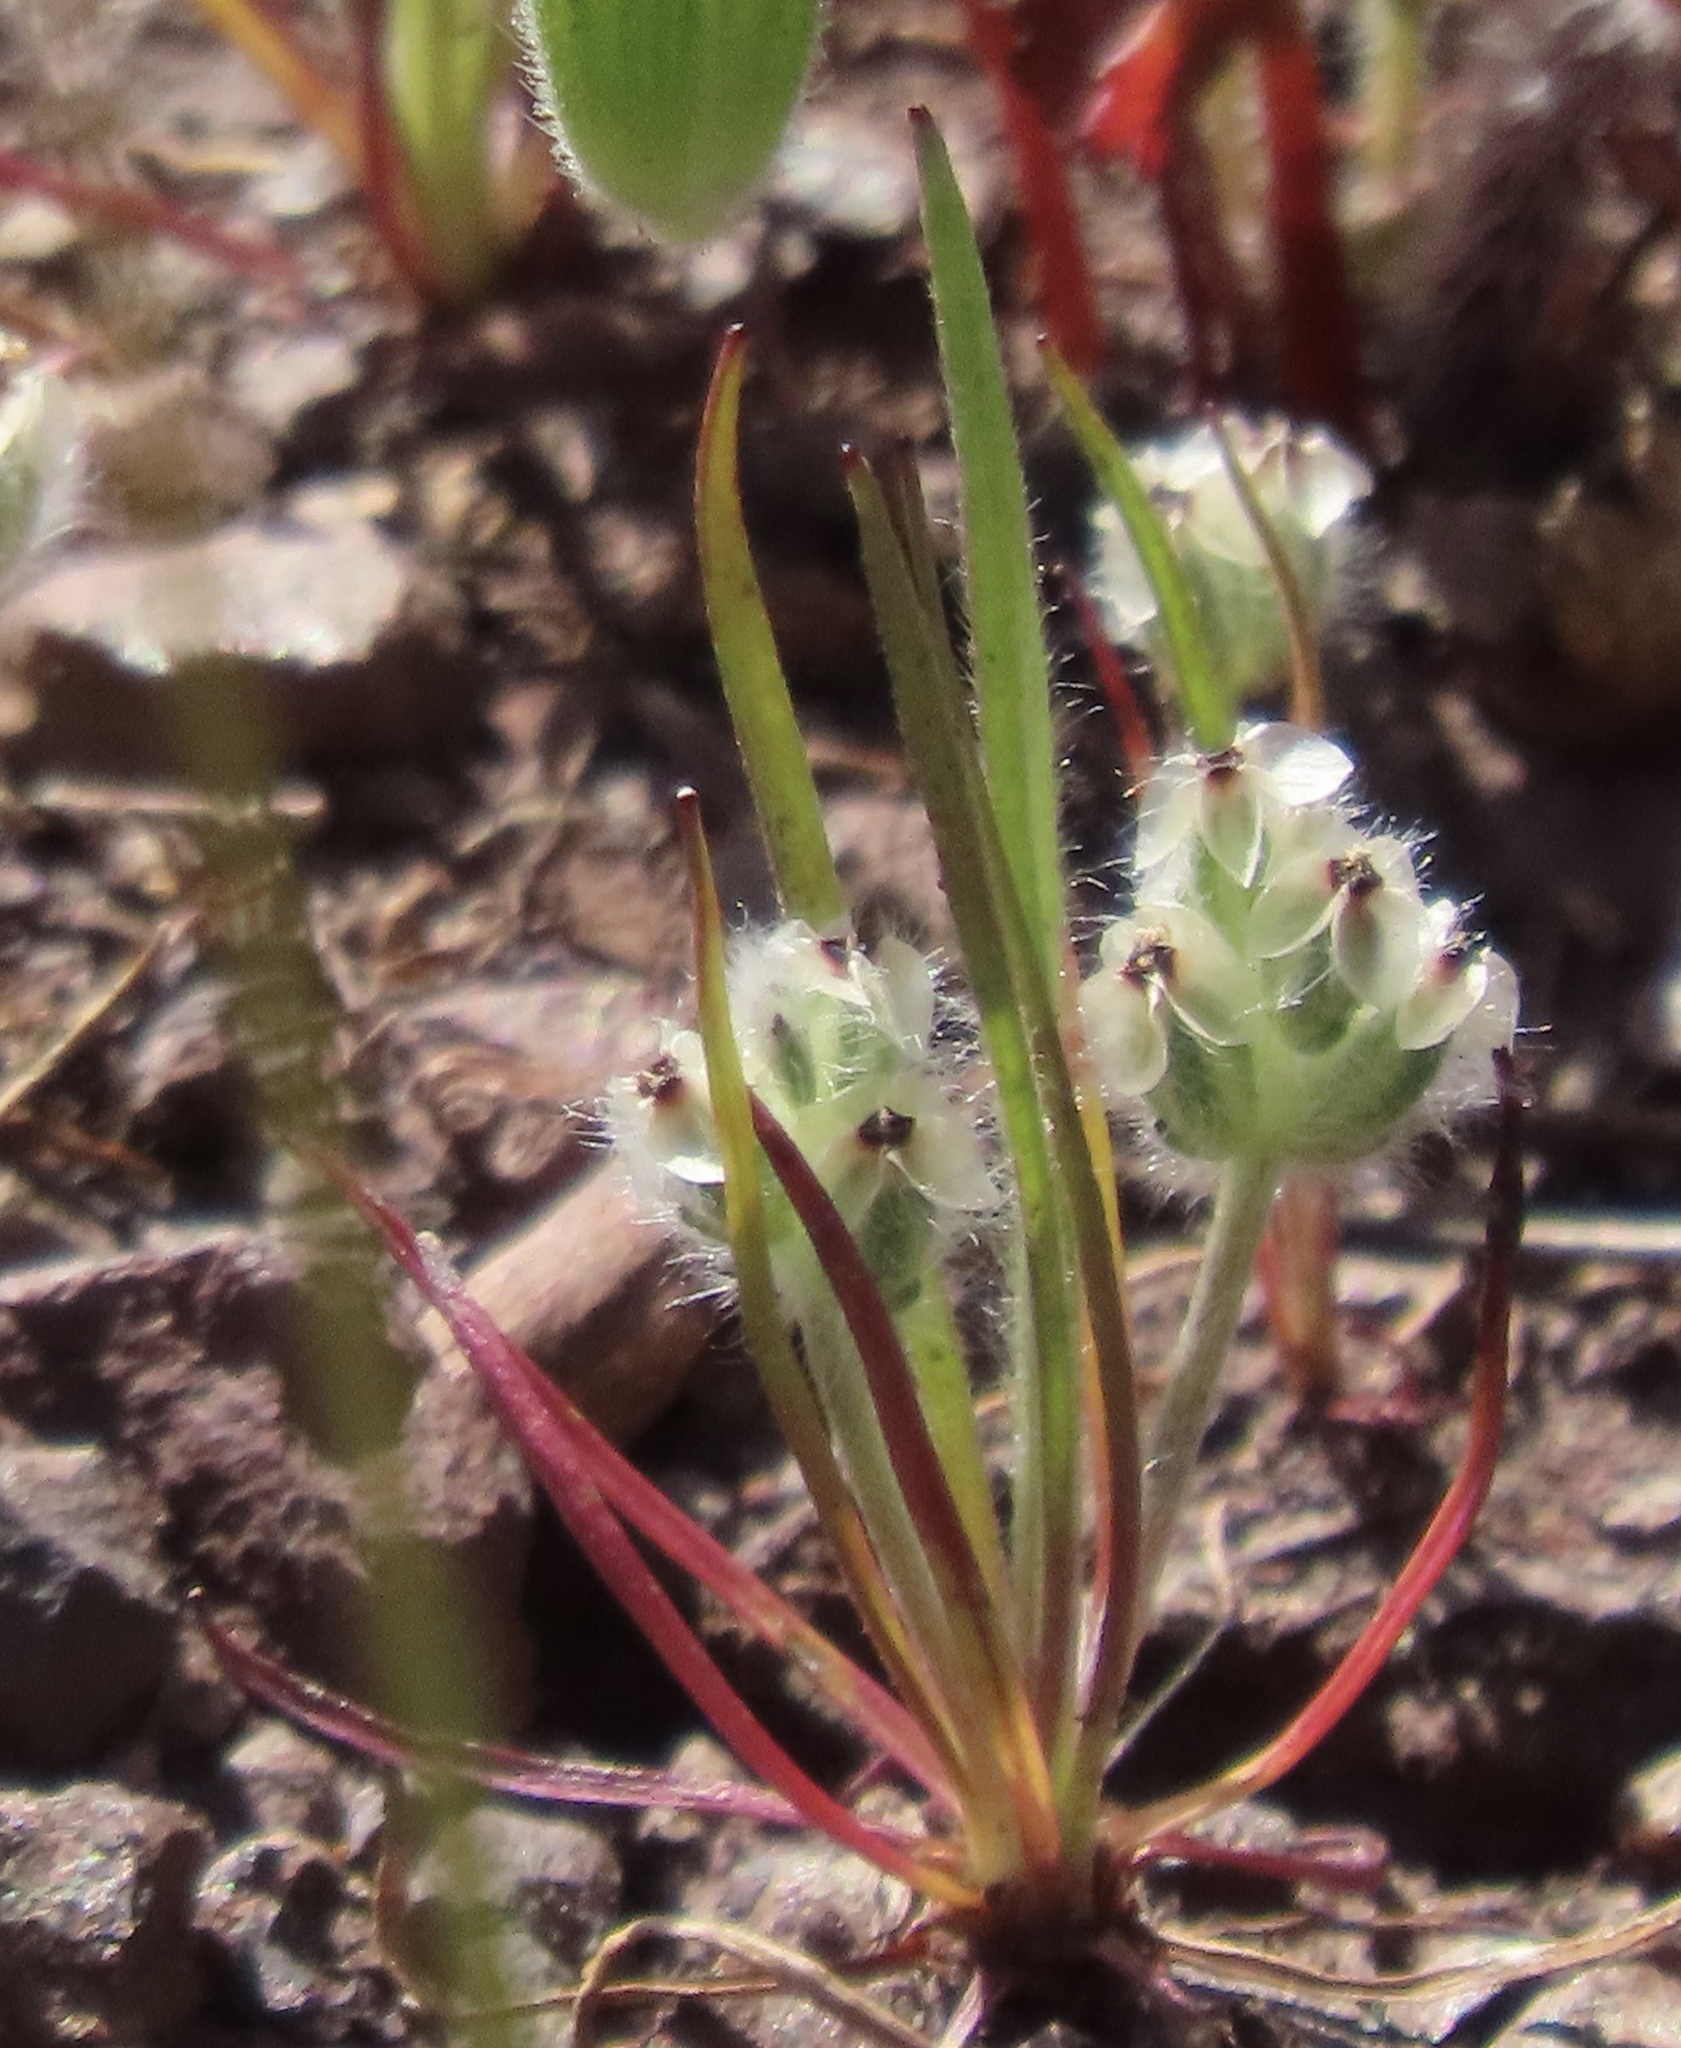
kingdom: Plantae
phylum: Tracheophyta
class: Magnoliopsida
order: Lamiales
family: Plantaginaceae
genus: Plantago
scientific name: Plantago erecta
